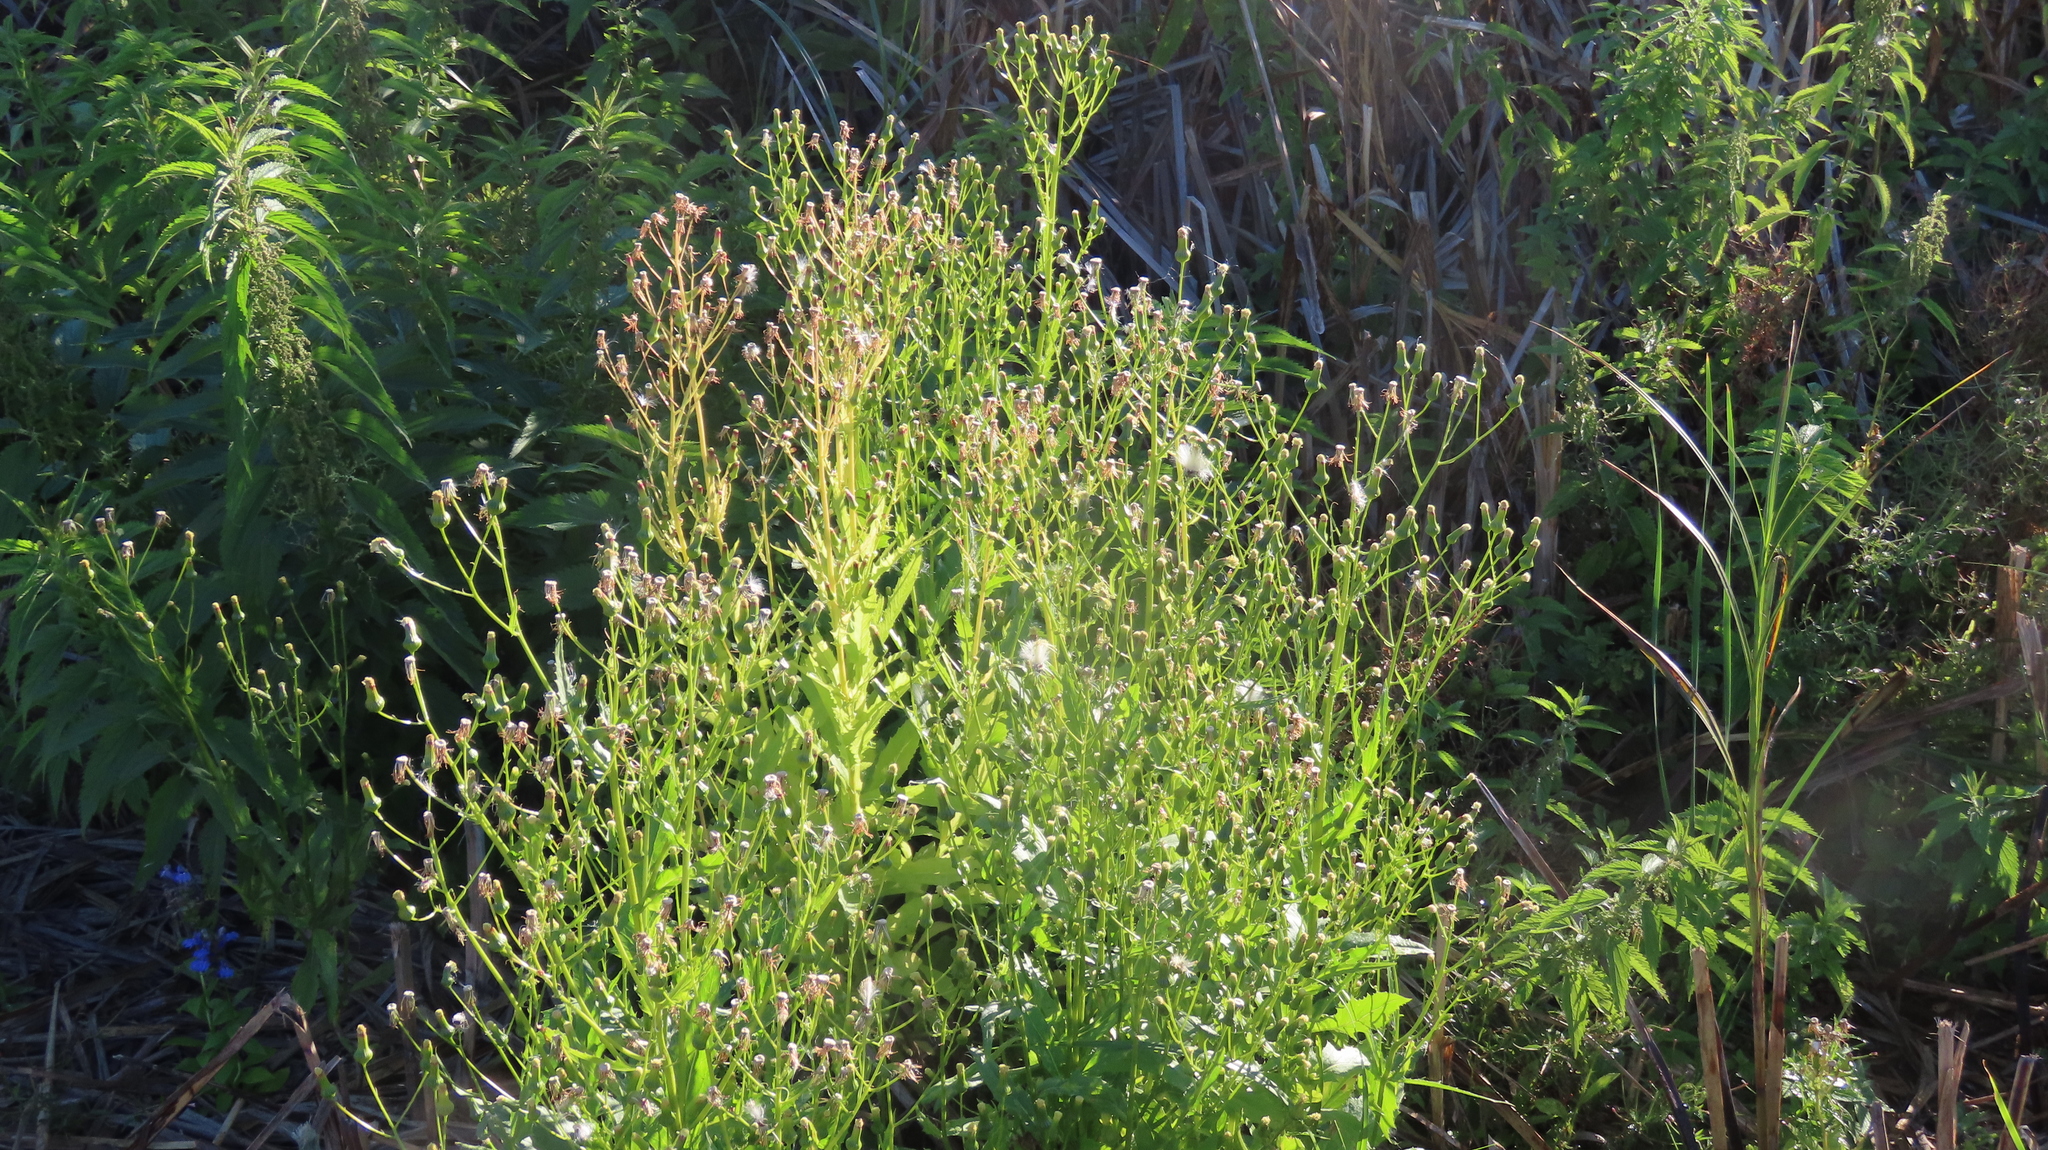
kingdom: Plantae
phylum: Tracheophyta
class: Magnoliopsida
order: Asterales
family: Asteraceae
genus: Erechtites
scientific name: Erechtites hieraciifolius
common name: American burnweed
